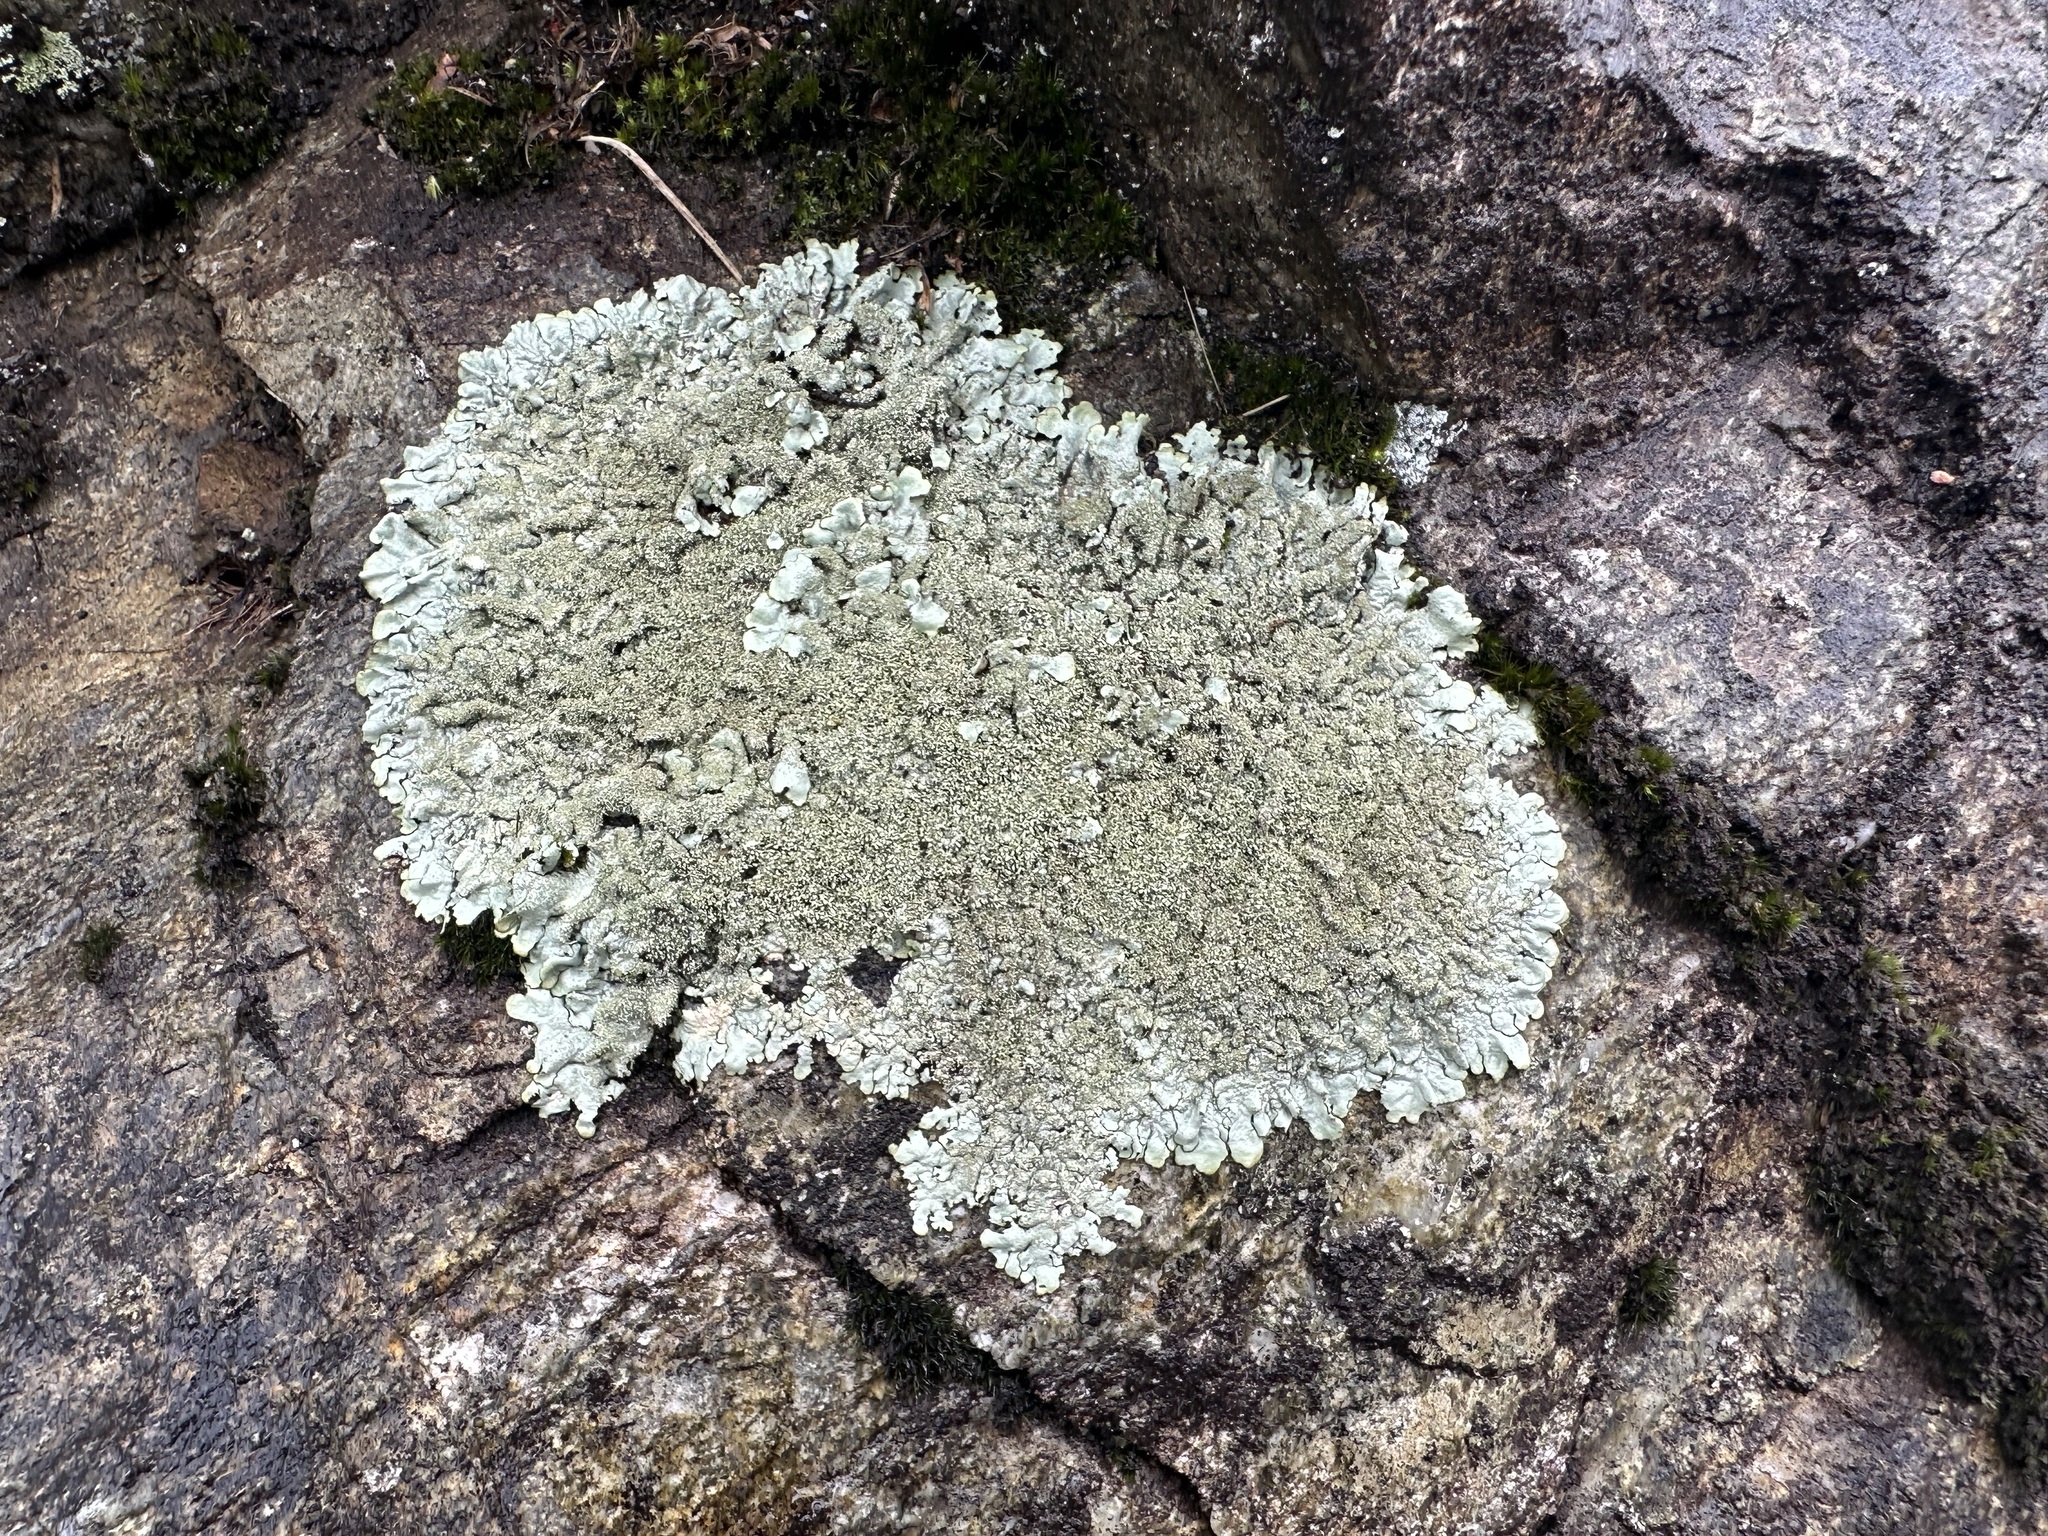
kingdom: Fungi
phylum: Ascomycota
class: Lecanoromycetes
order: Lecanorales
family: Parmeliaceae
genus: Xanthoparmelia
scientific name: Xanthoparmelia conspersa
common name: Peppered rock shield
